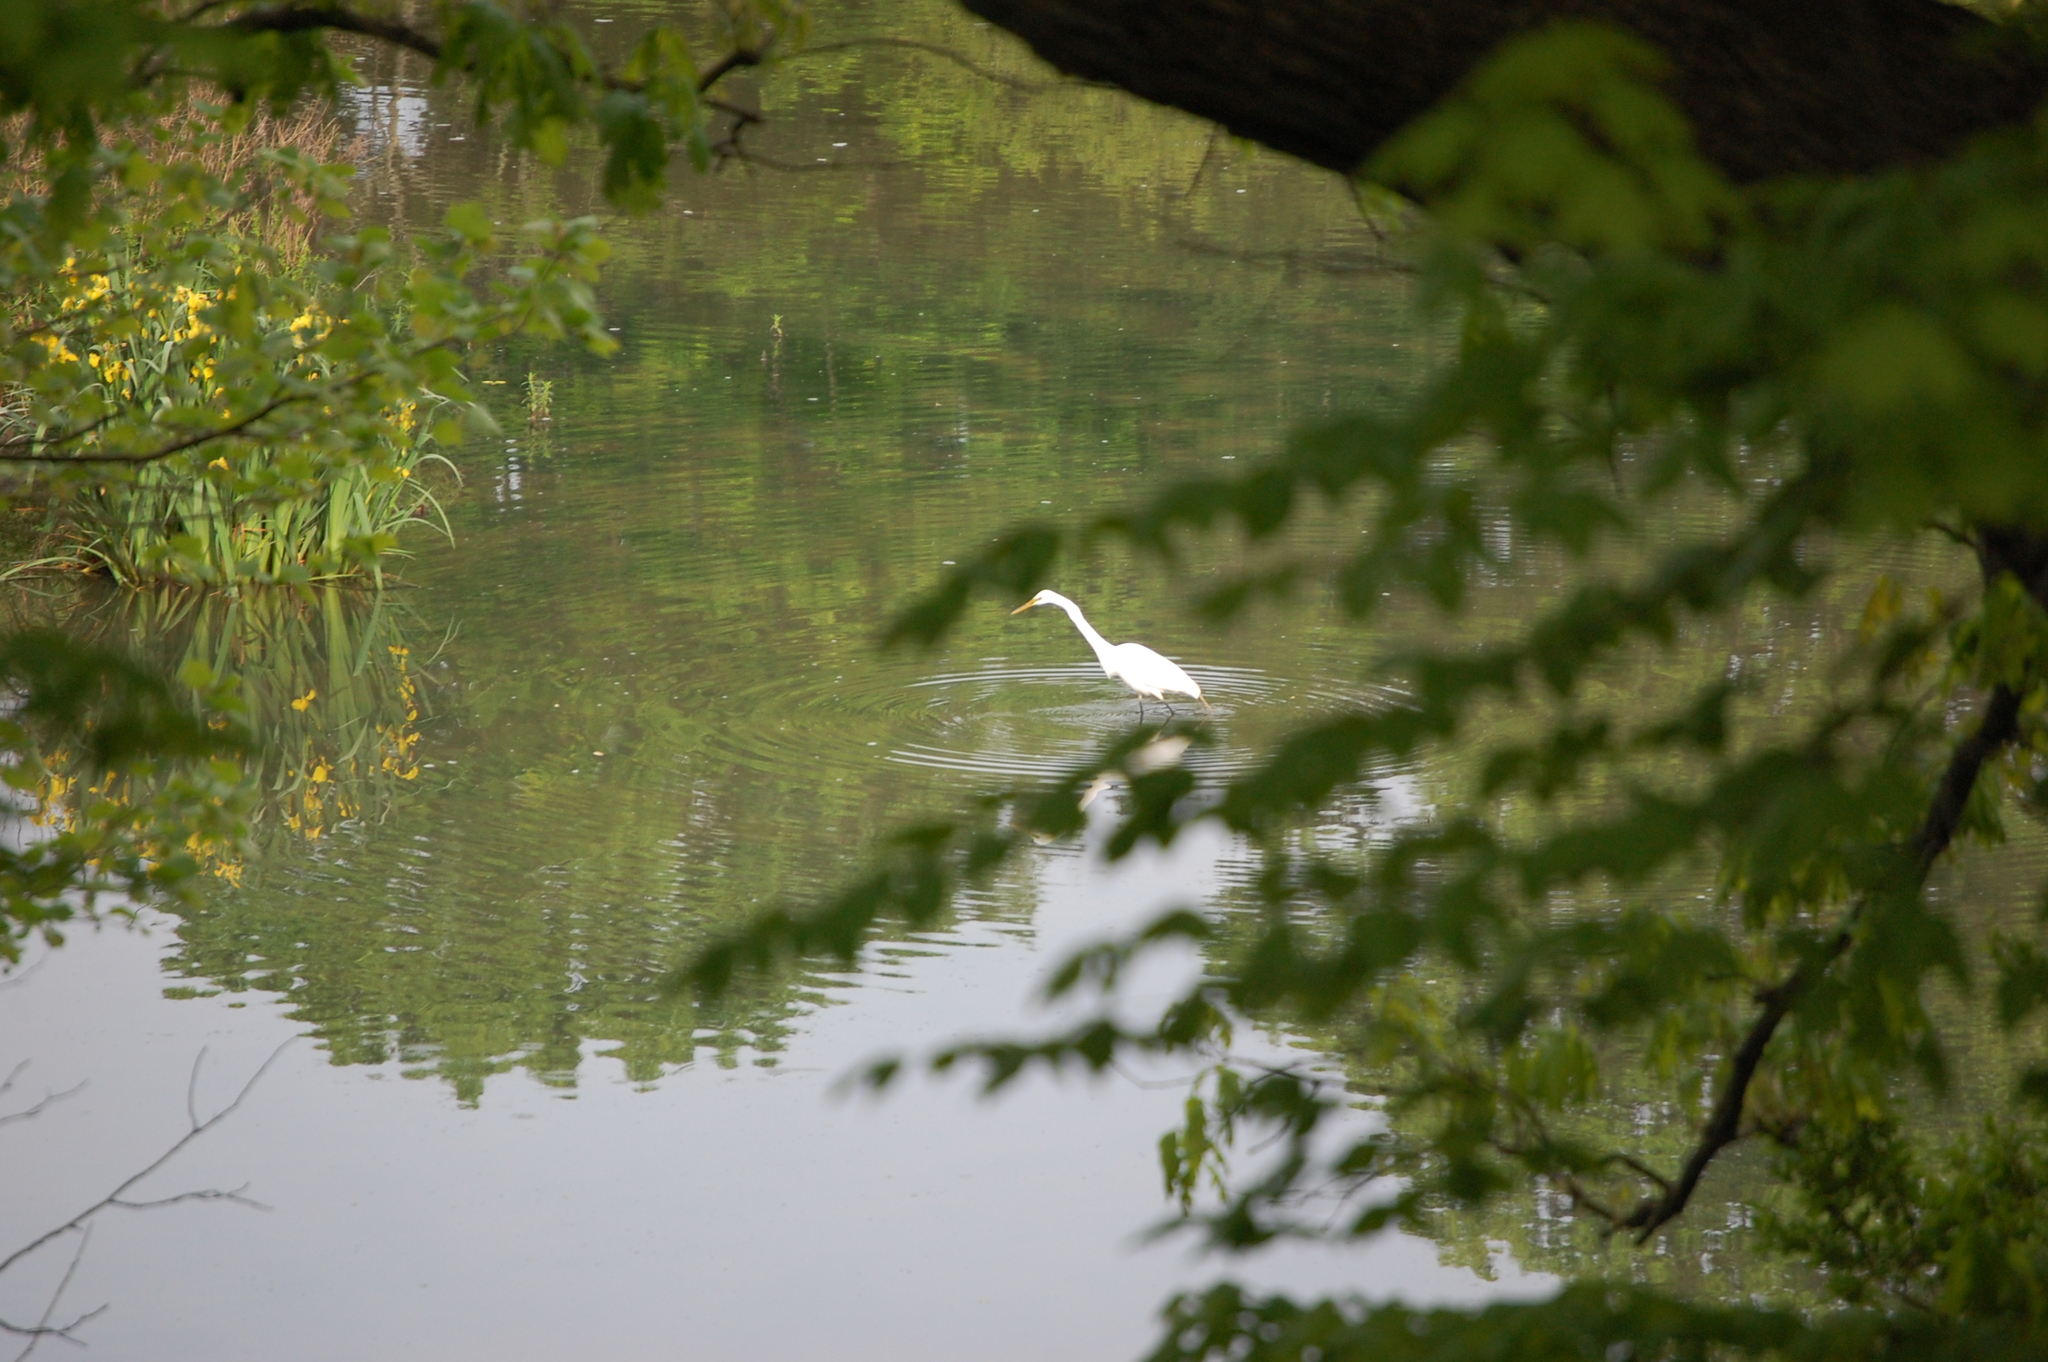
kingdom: Animalia
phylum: Chordata
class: Aves
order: Pelecaniformes
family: Ardeidae
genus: Ardea
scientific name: Ardea alba
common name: Great egret
